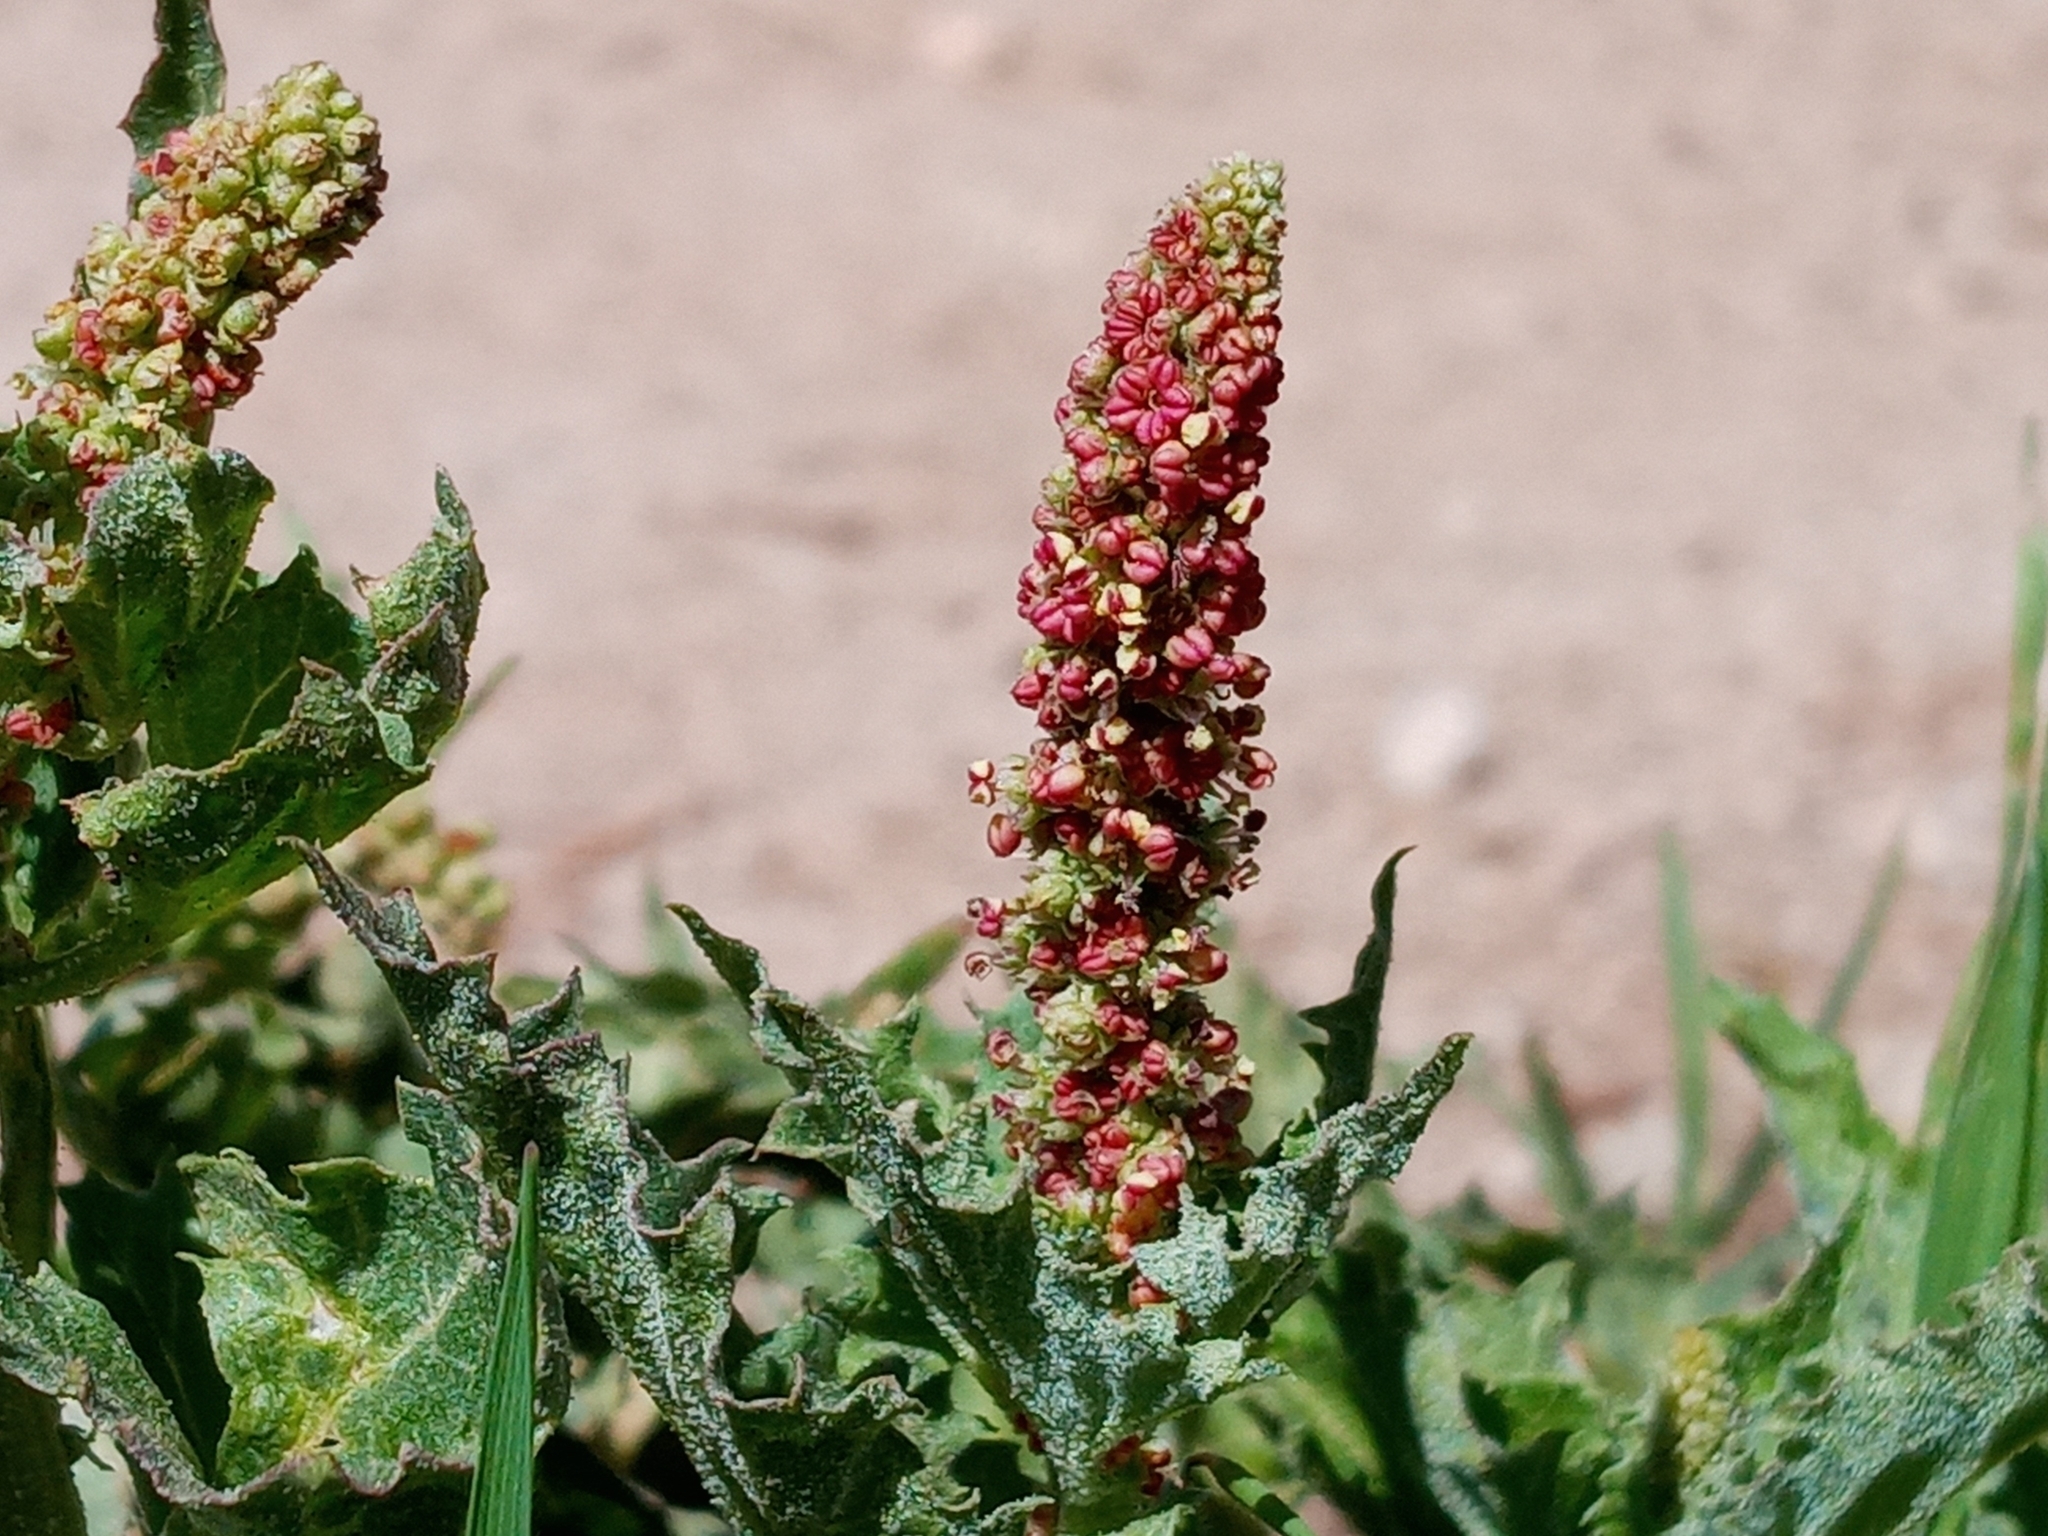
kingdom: Plantae
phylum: Tracheophyta
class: Magnoliopsida
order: Caryophyllales
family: Amaranthaceae
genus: Blitum
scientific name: Blitum californicum
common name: California goosefoot
